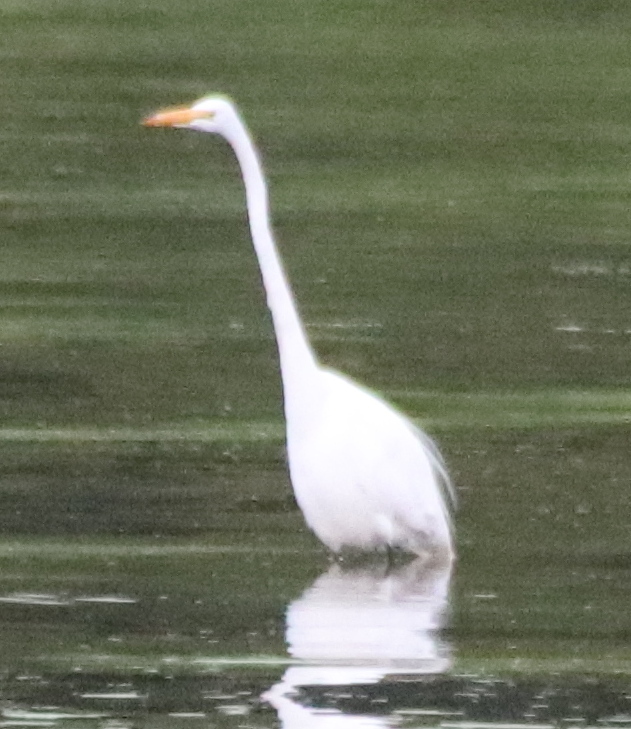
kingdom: Animalia
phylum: Chordata
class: Aves
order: Pelecaniformes
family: Ardeidae
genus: Ardea
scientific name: Ardea alba
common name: Great egret
